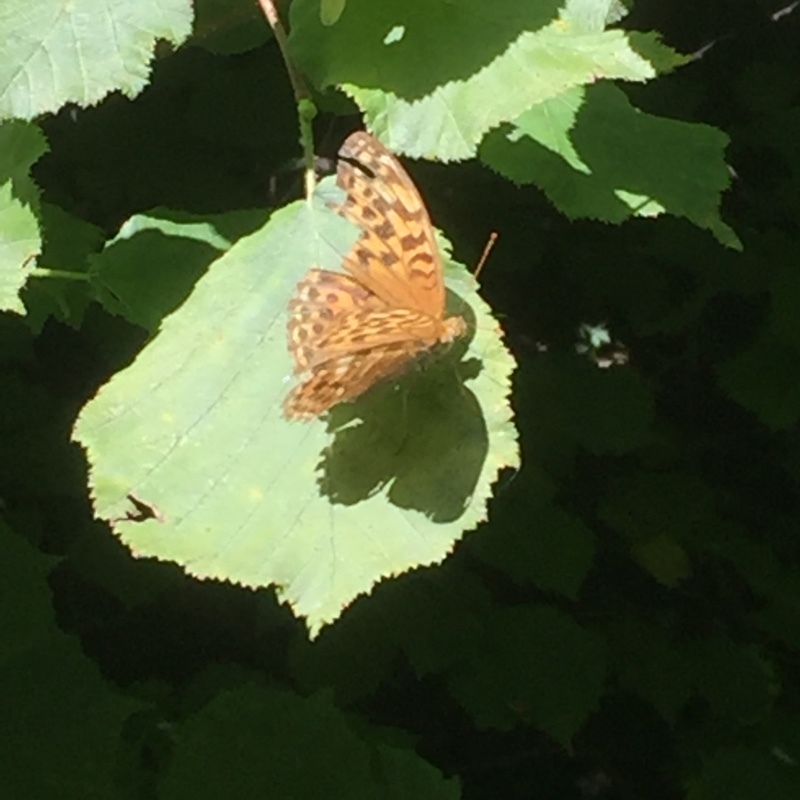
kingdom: Animalia
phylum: Arthropoda
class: Insecta
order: Lepidoptera
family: Nymphalidae
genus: Argynnis
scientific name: Argynnis paphia
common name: Silver-washed fritillary
